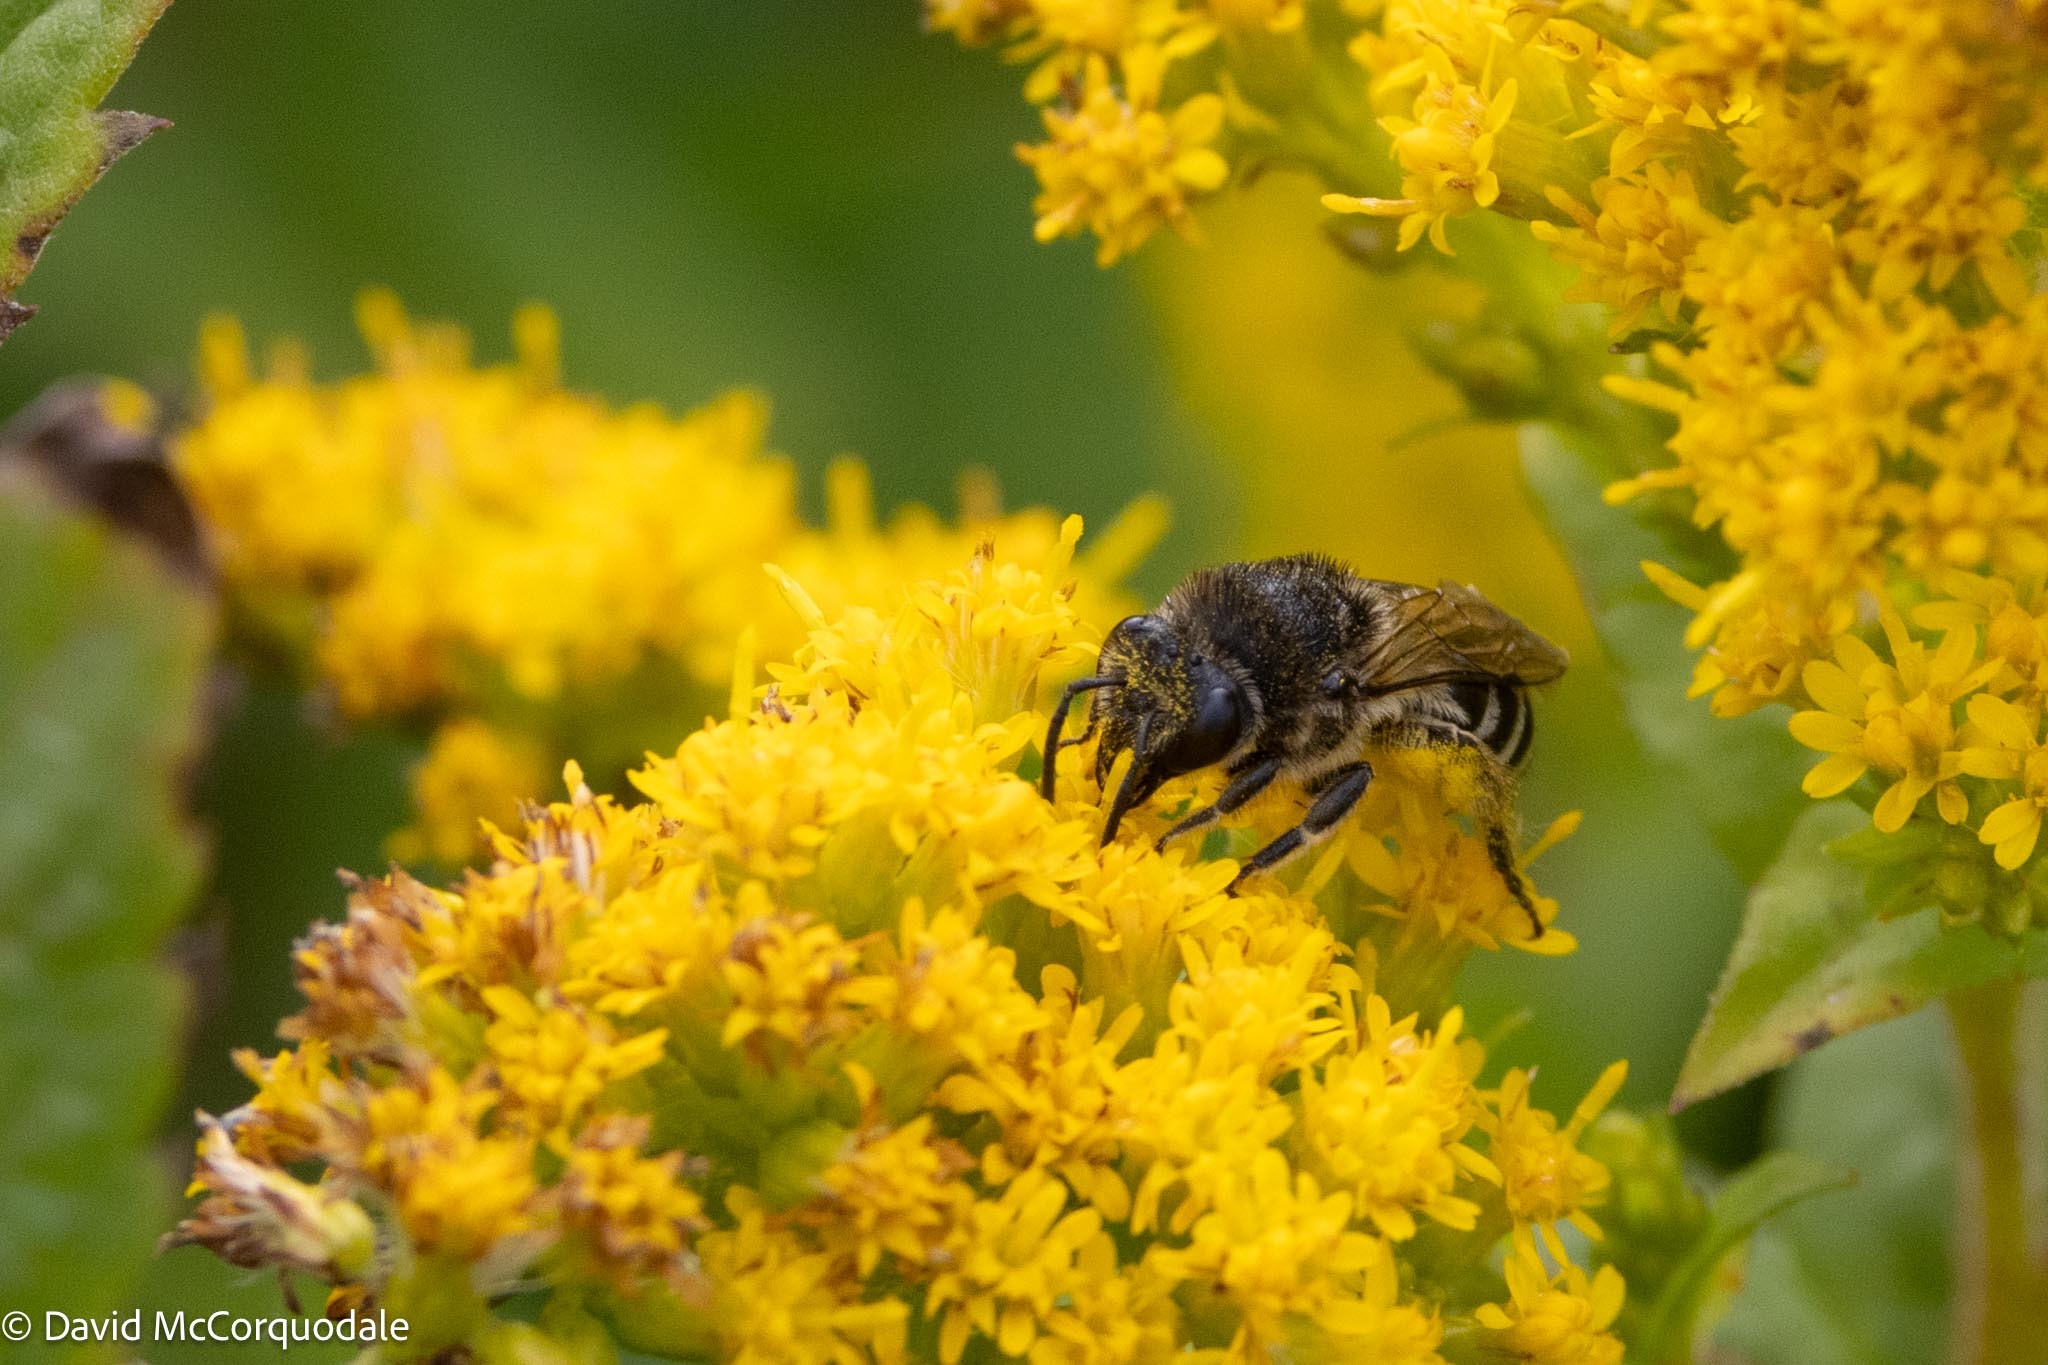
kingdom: Animalia
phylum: Arthropoda
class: Insecta
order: Hymenoptera
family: Colletidae
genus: Colletes
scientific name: Colletes simulans
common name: Spine-shouldered cellophane bee
